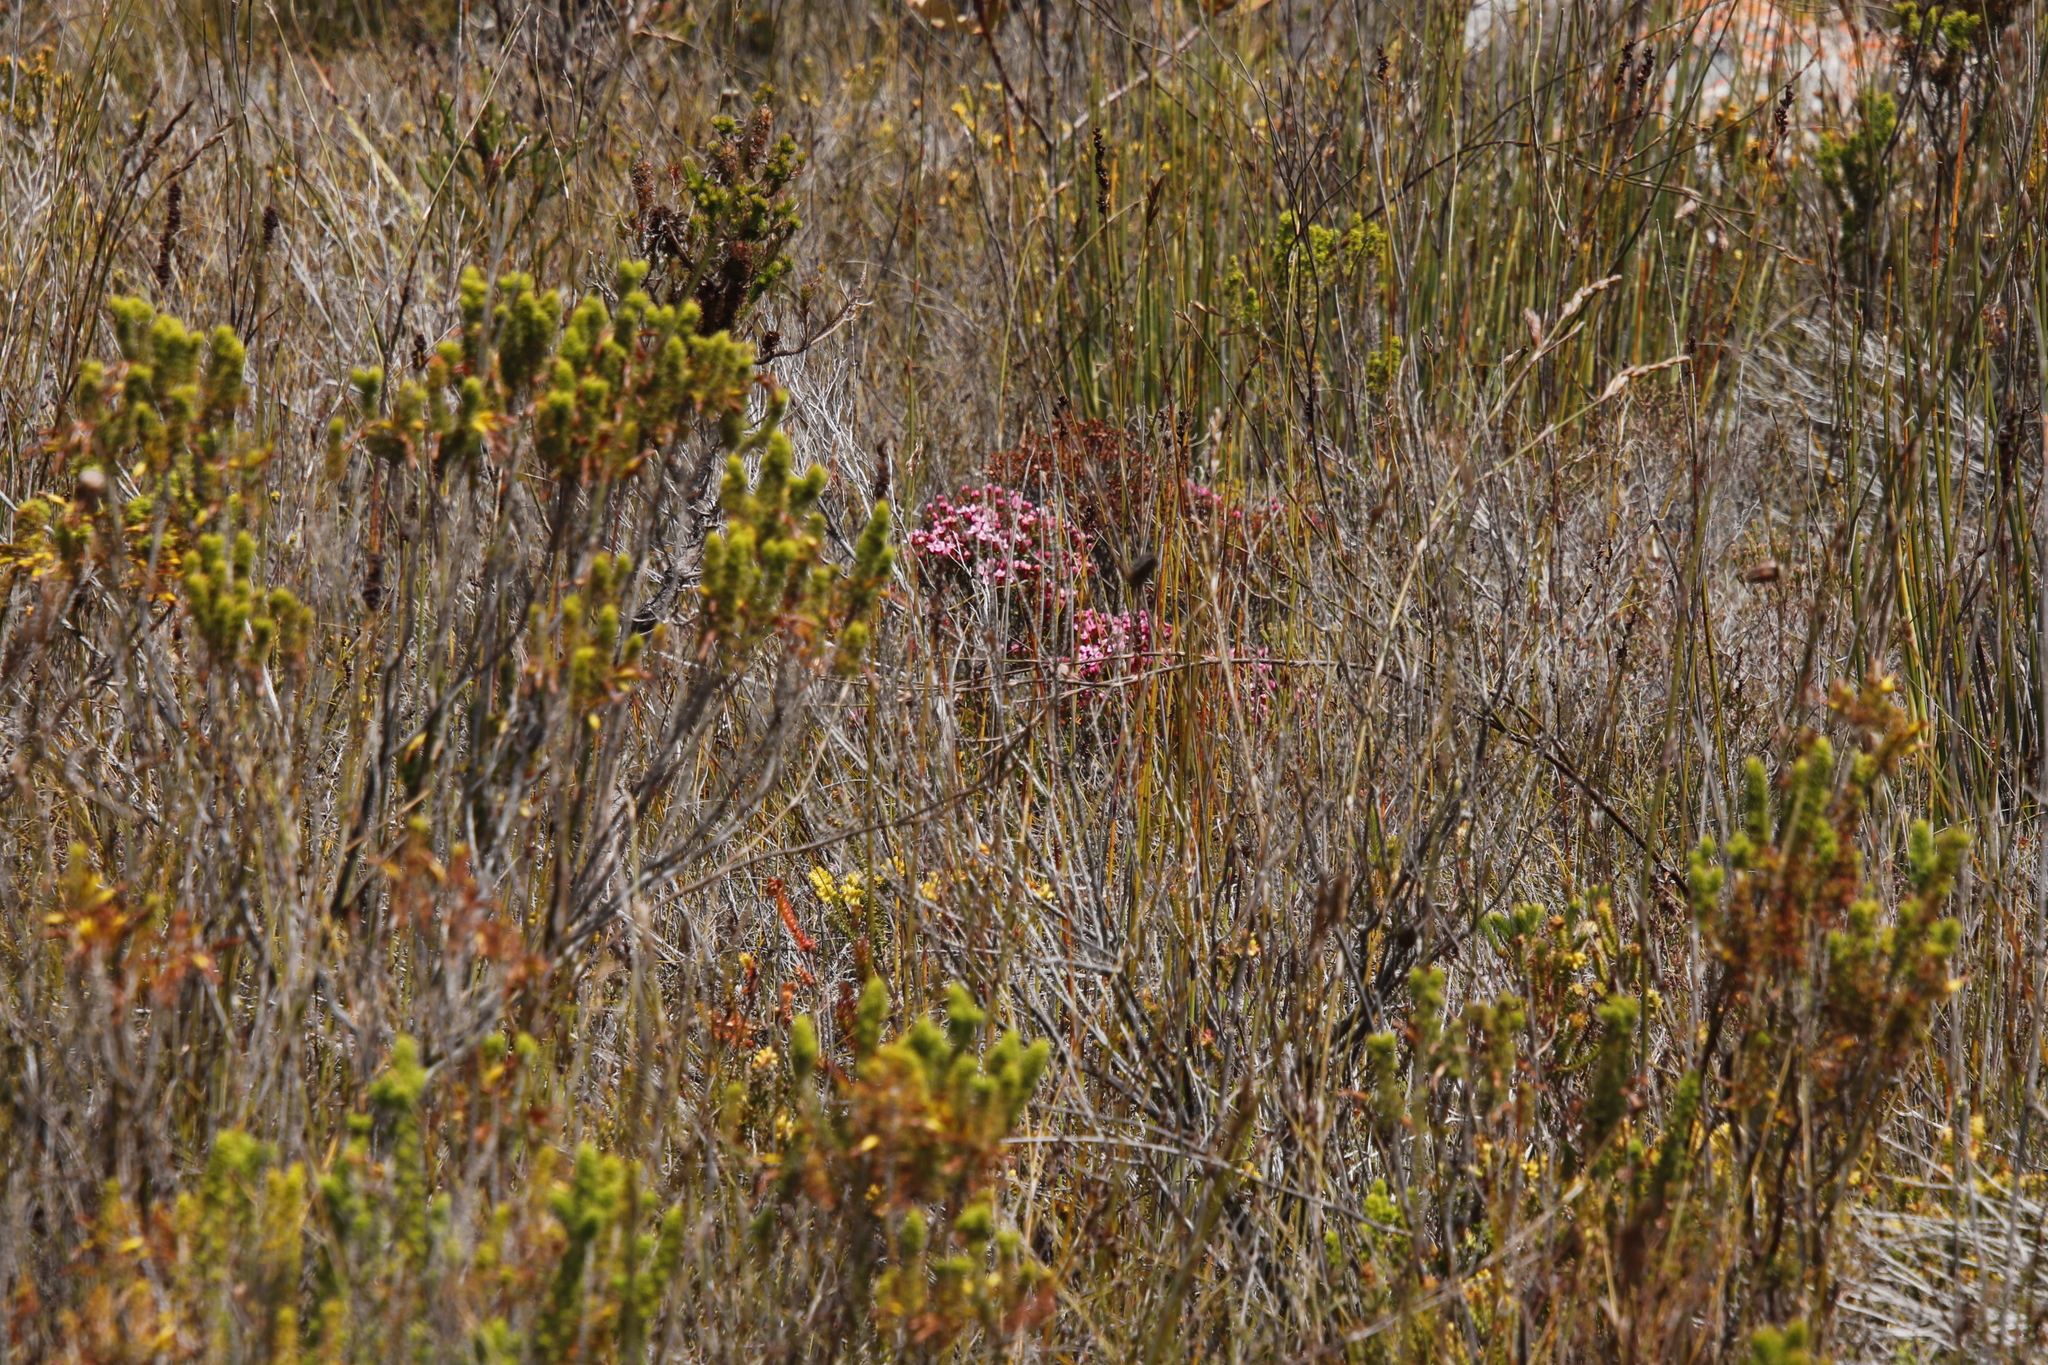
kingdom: Plantae
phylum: Tracheophyta
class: Magnoliopsida
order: Myrtales
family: Penaeaceae
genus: Brachysiphon
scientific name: Brachysiphon acutus
